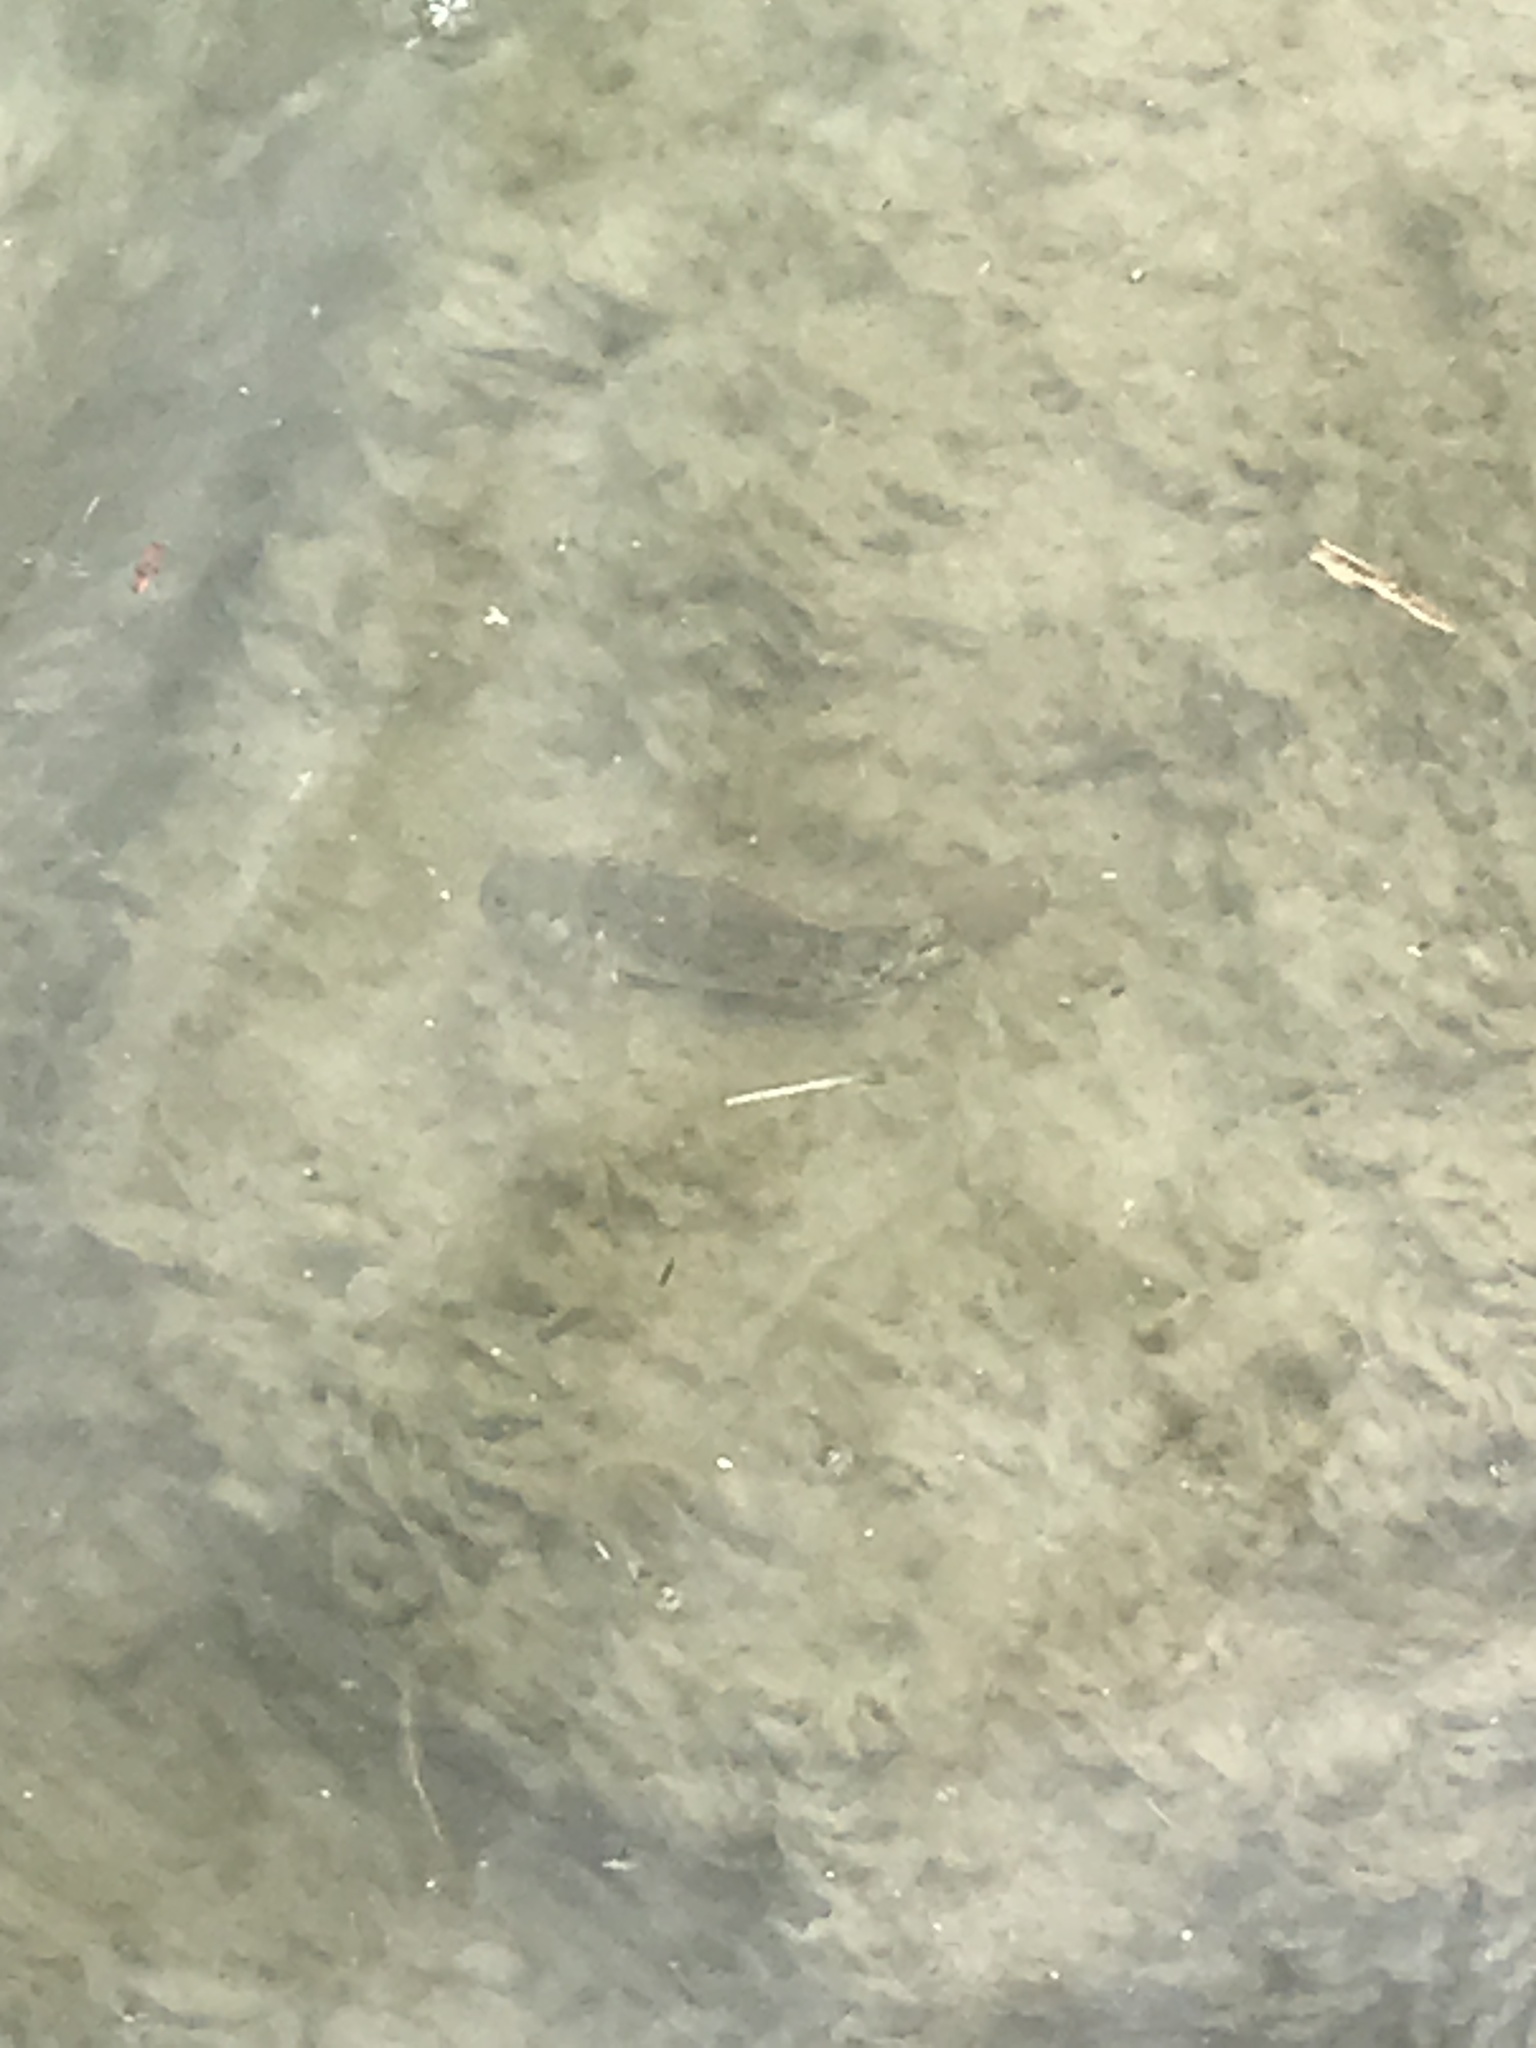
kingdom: Animalia
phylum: Chordata
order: Perciformes
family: Gobiidae
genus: Neogobius
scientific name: Neogobius melanostomus
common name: Round goby
